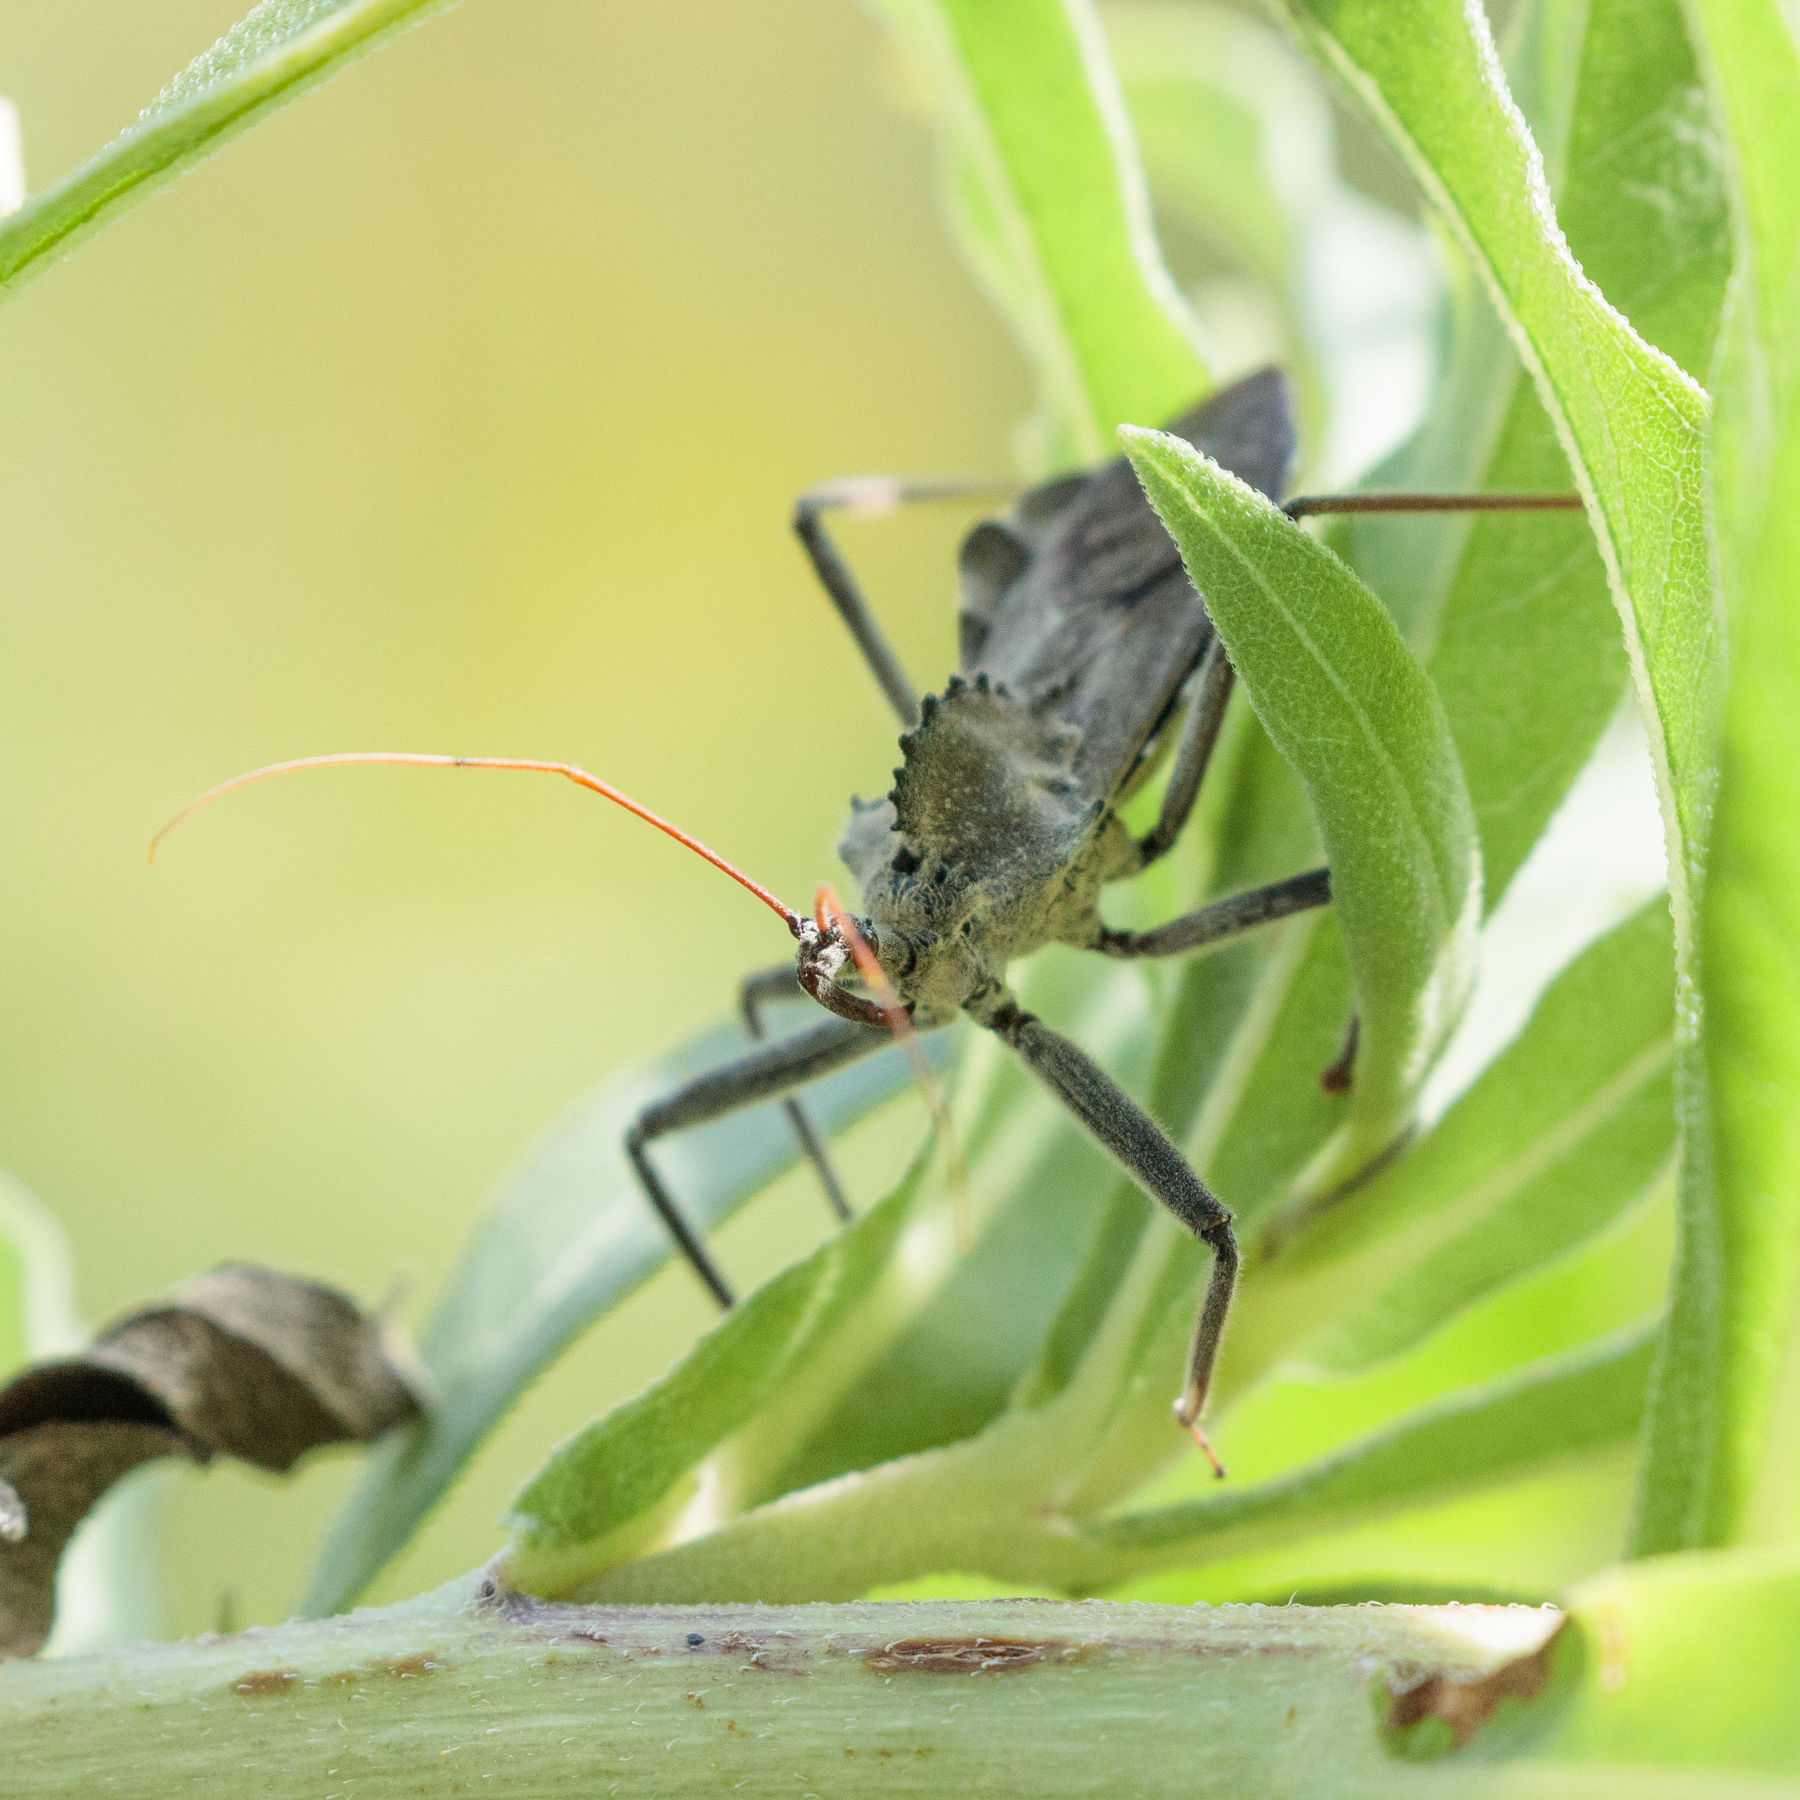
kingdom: Animalia
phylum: Arthropoda
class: Insecta
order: Hemiptera
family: Reduviidae
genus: Arilus
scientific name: Arilus cristatus
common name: North american wheel bug
